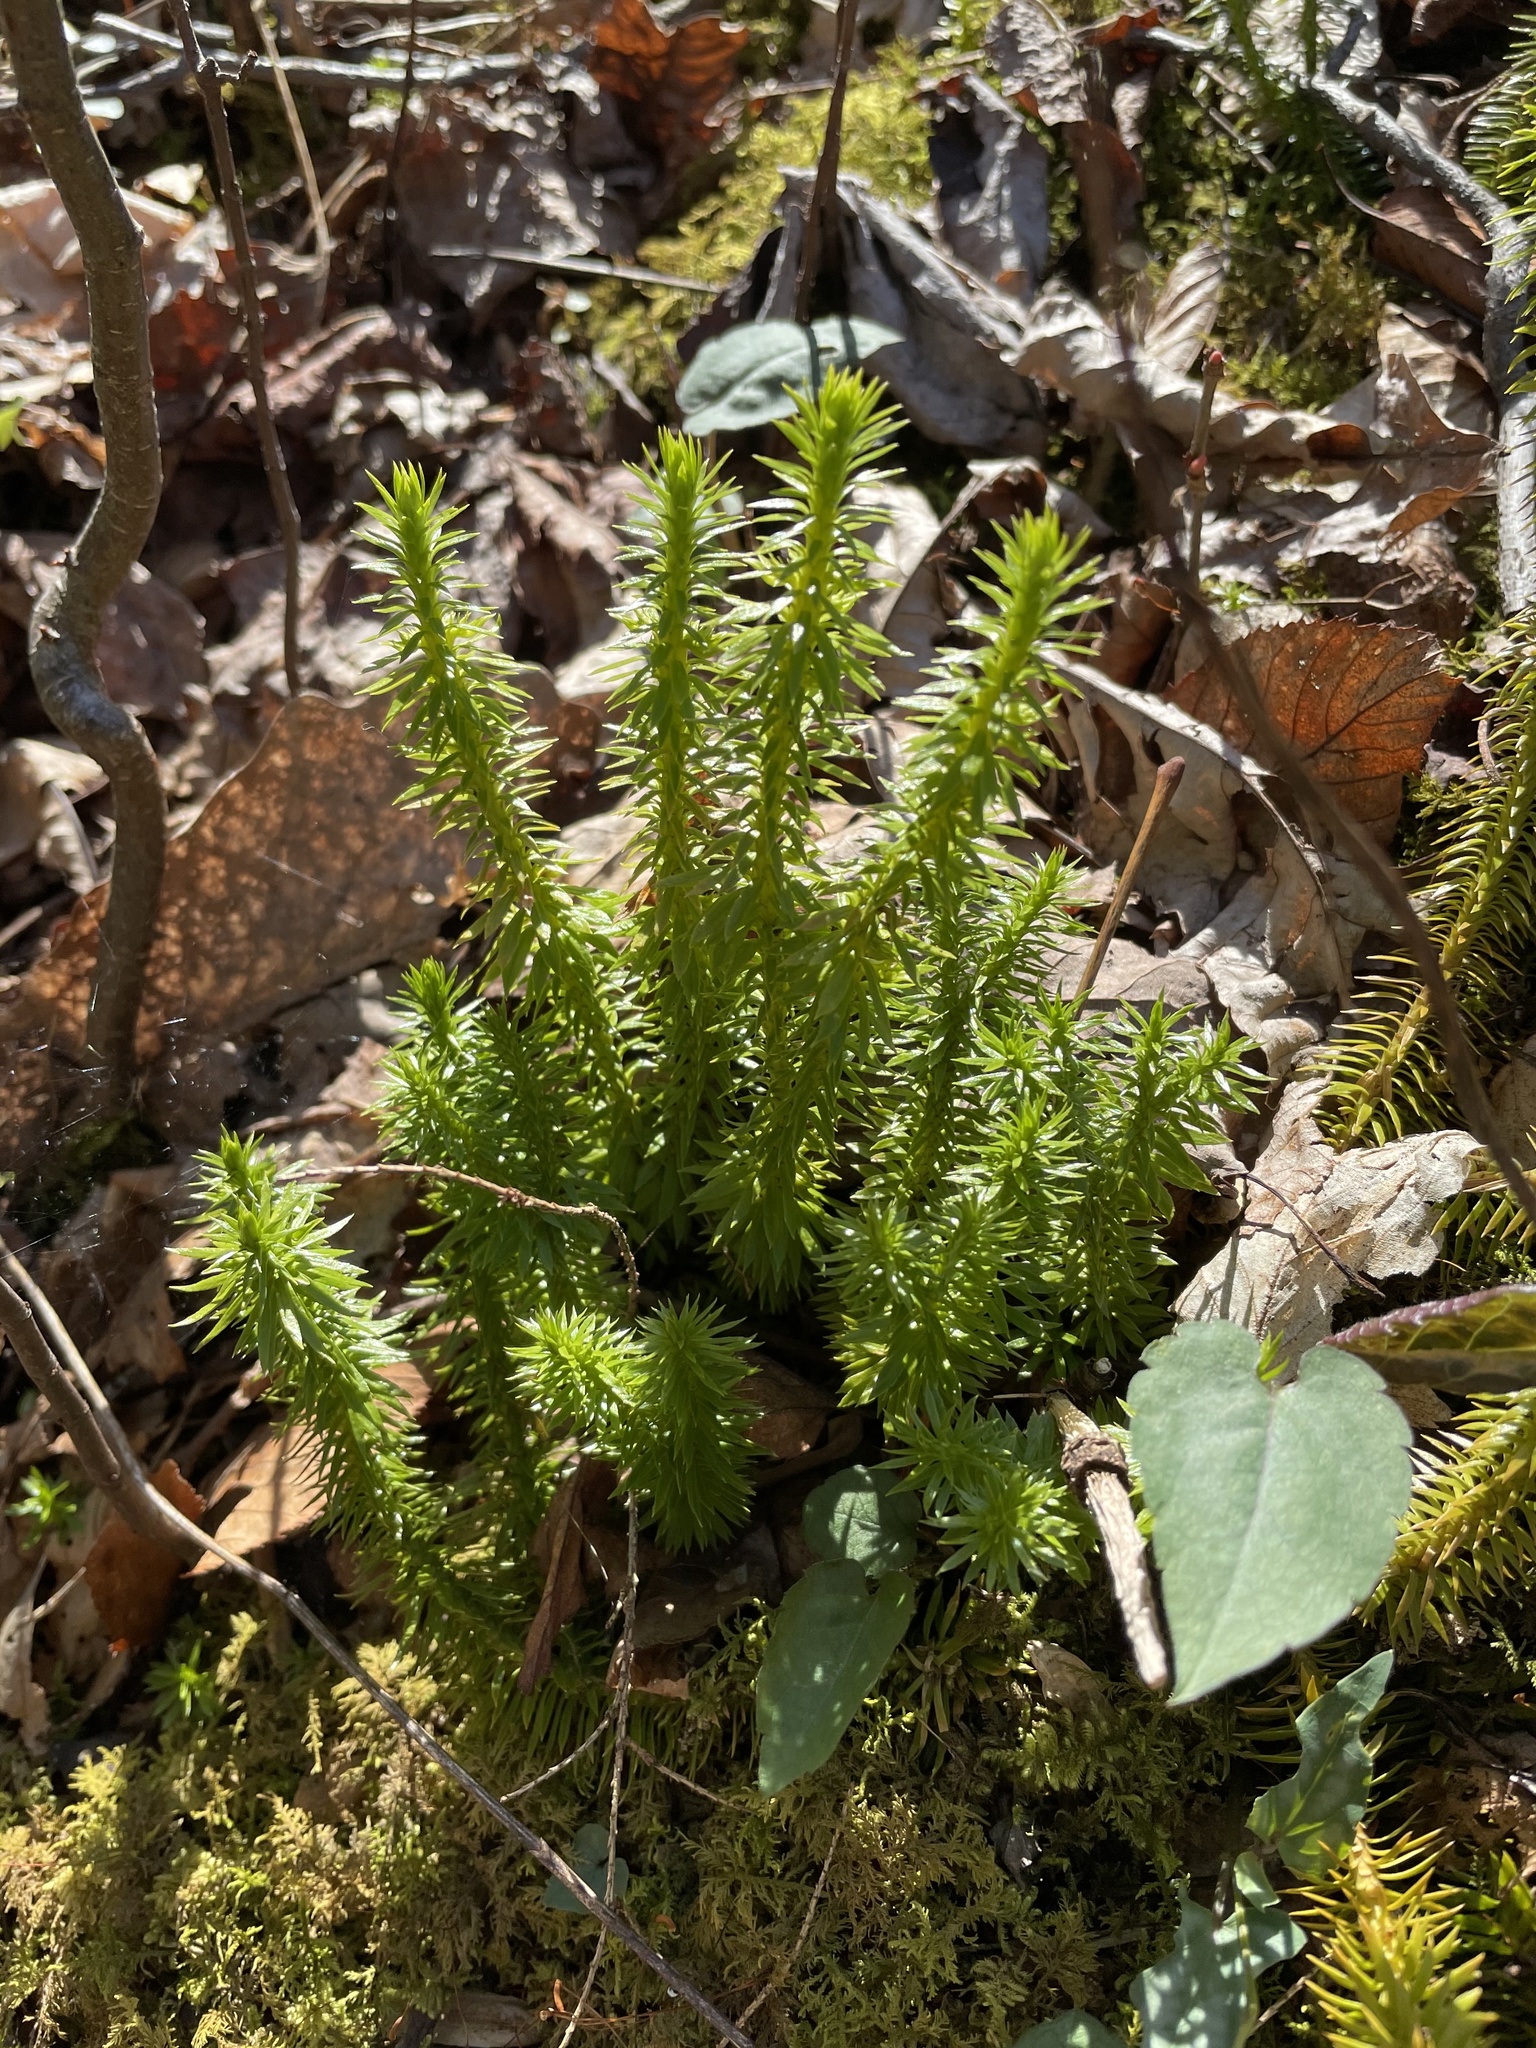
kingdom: Plantae
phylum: Tracheophyta
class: Lycopodiopsida
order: Lycopodiales
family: Lycopodiaceae
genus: Huperzia
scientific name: Huperzia lucidula
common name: Shining clubmoss
